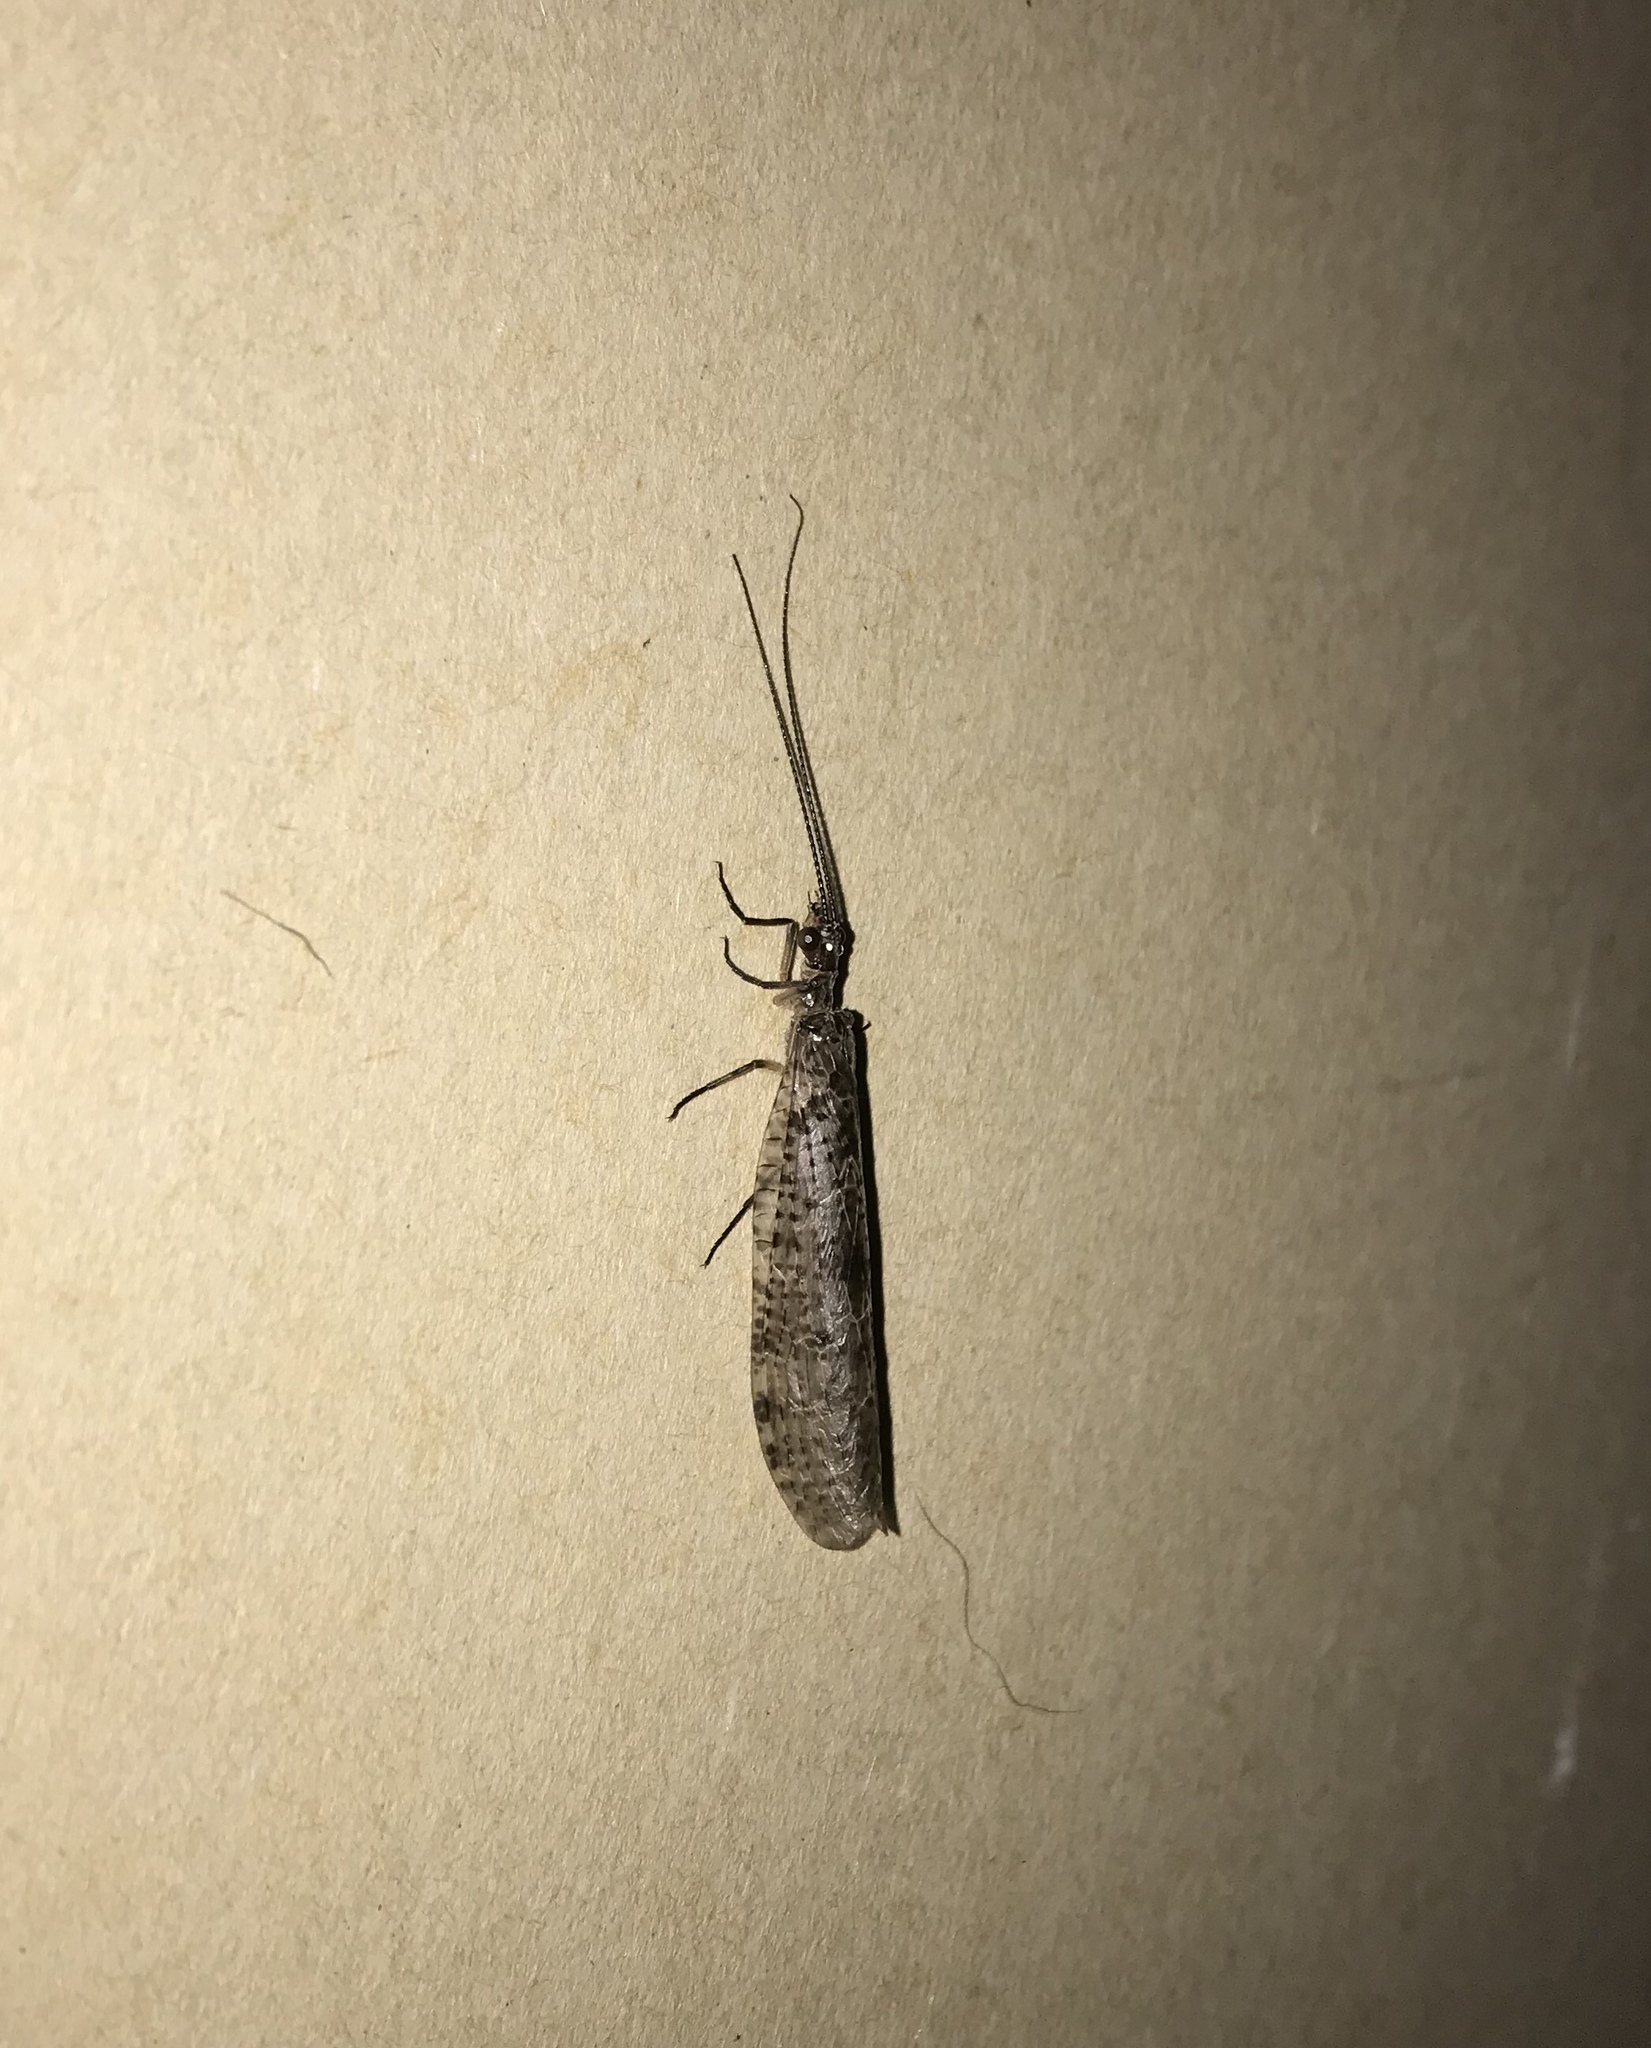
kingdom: Animalia
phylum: Arthropoda
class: Insecta
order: Megaloptera
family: Corydalidae
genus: Archichauliodes
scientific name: Archichauliodes diversus
